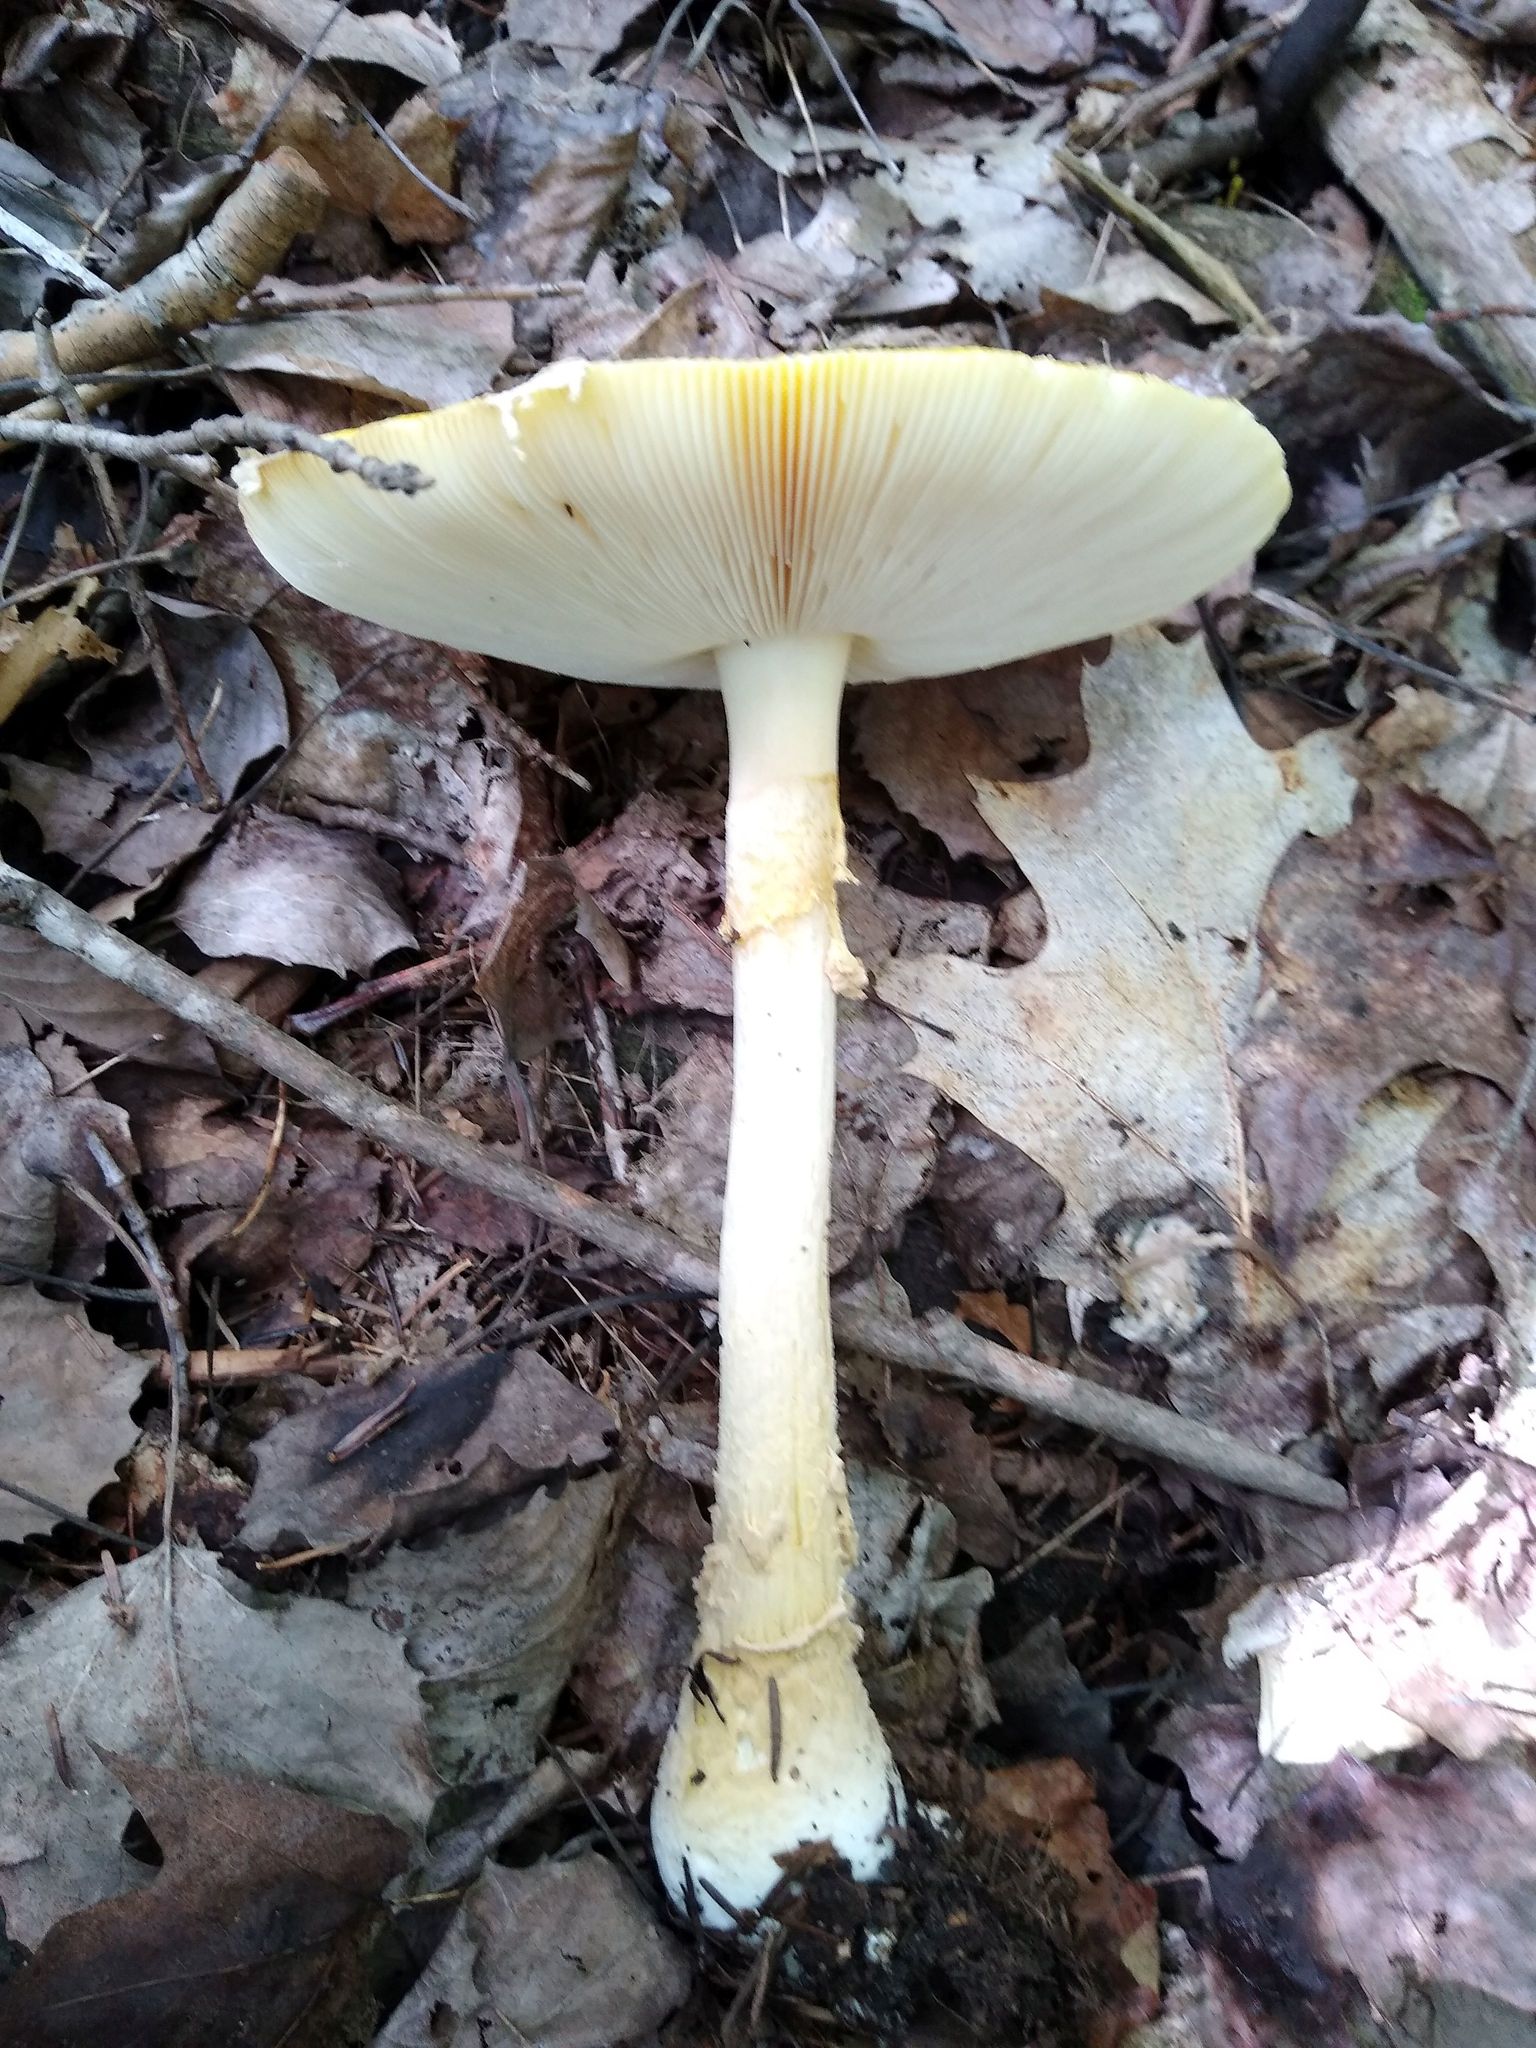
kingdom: Fungi
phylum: Basidiomycota
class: Agaricomycetes
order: Agaricales
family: Amanitaceae
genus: Amanita
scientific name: Amanita muscaria
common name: Fly agaric
